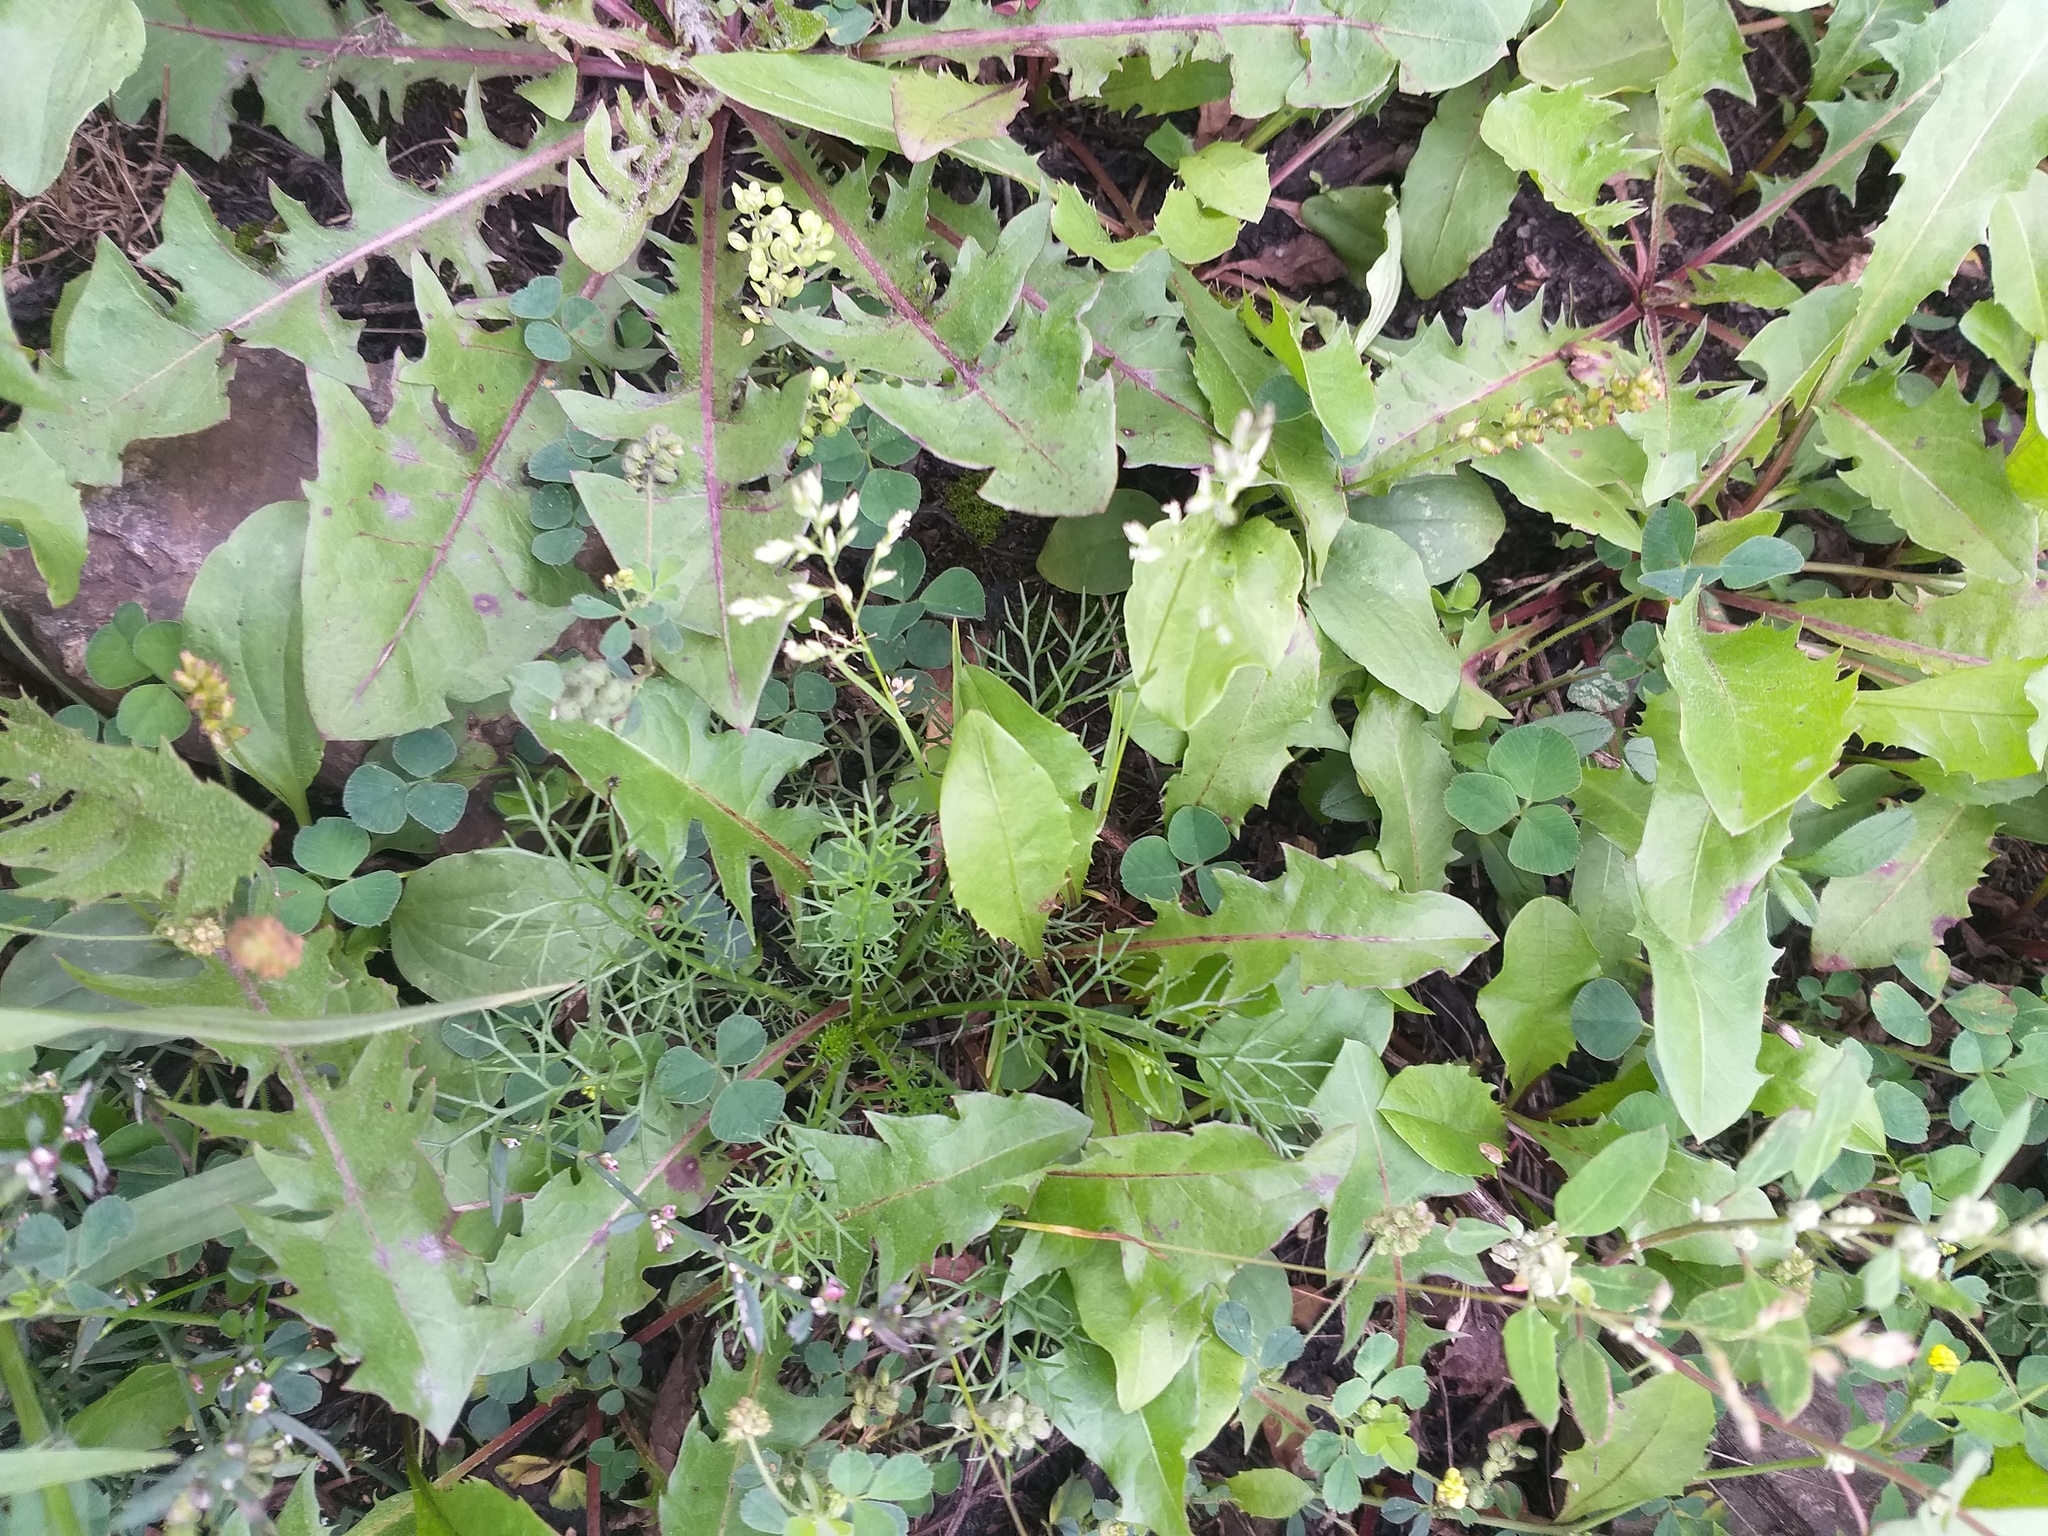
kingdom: Plantae
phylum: Tracheophyta
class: Liliopsida
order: Poales
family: Poaceae
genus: Poa
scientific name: Poa annua
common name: Annual bluegrass
